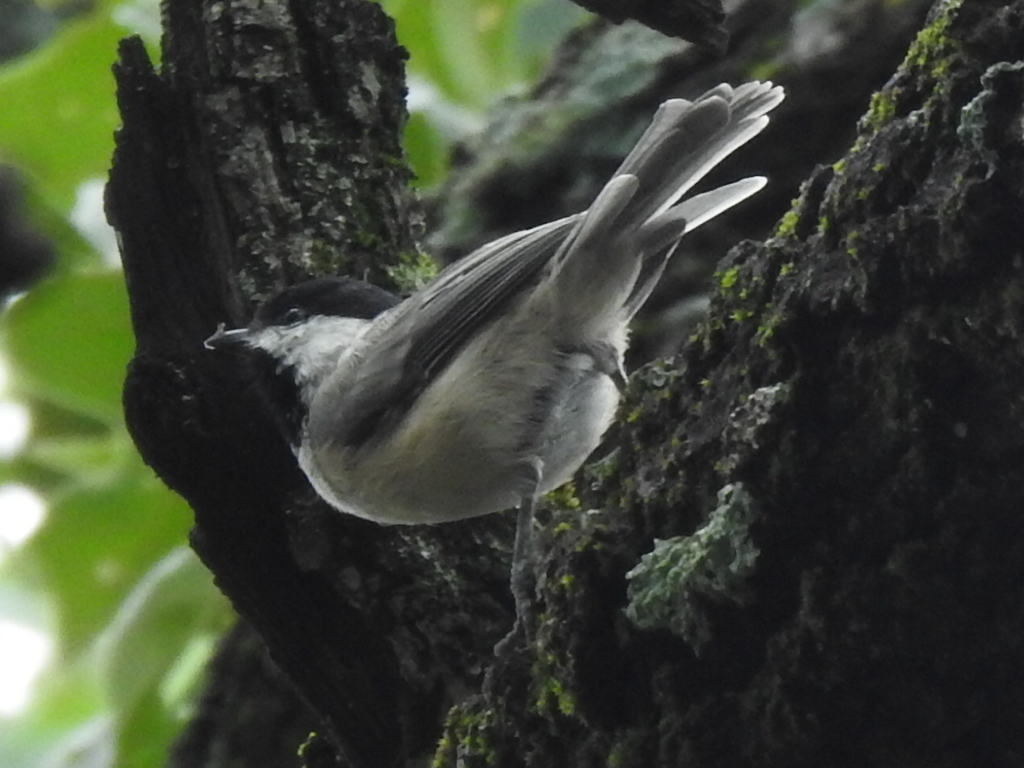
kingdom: Animalia
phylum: Chordata
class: Aves
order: Passeriformes
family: Paridae
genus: Poecile
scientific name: Poecile carolinensis
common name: Carolina chickadee
